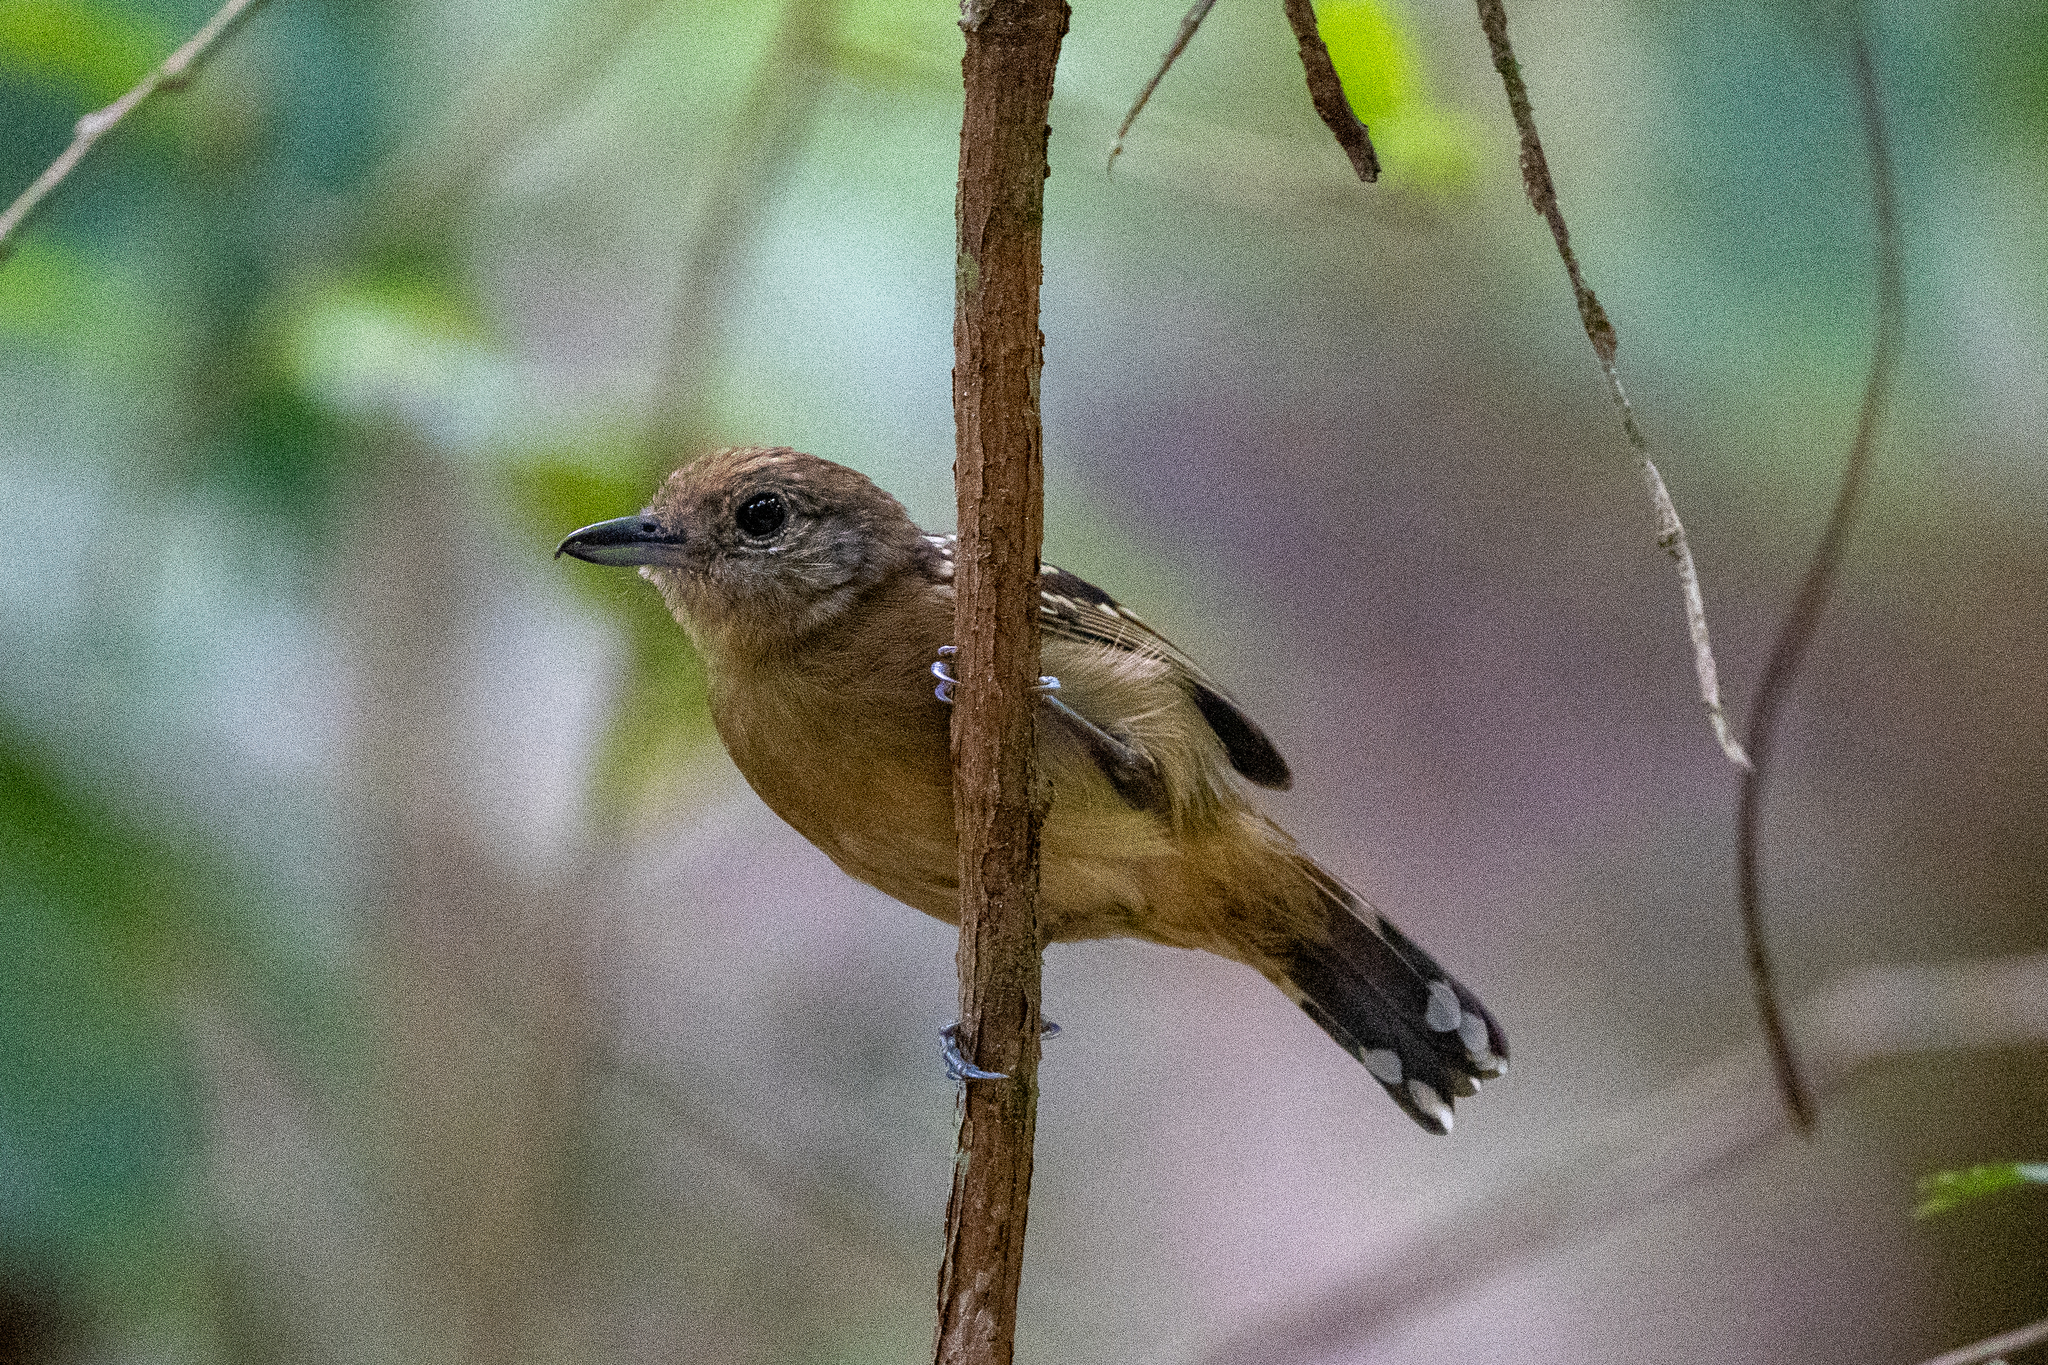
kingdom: Animalia
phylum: Chordata
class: Aves
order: Passeriformes
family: Thamnophilidae
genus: Thamnophilus
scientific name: Thamnophilus atrinucha
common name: Black-crowned antshrike
